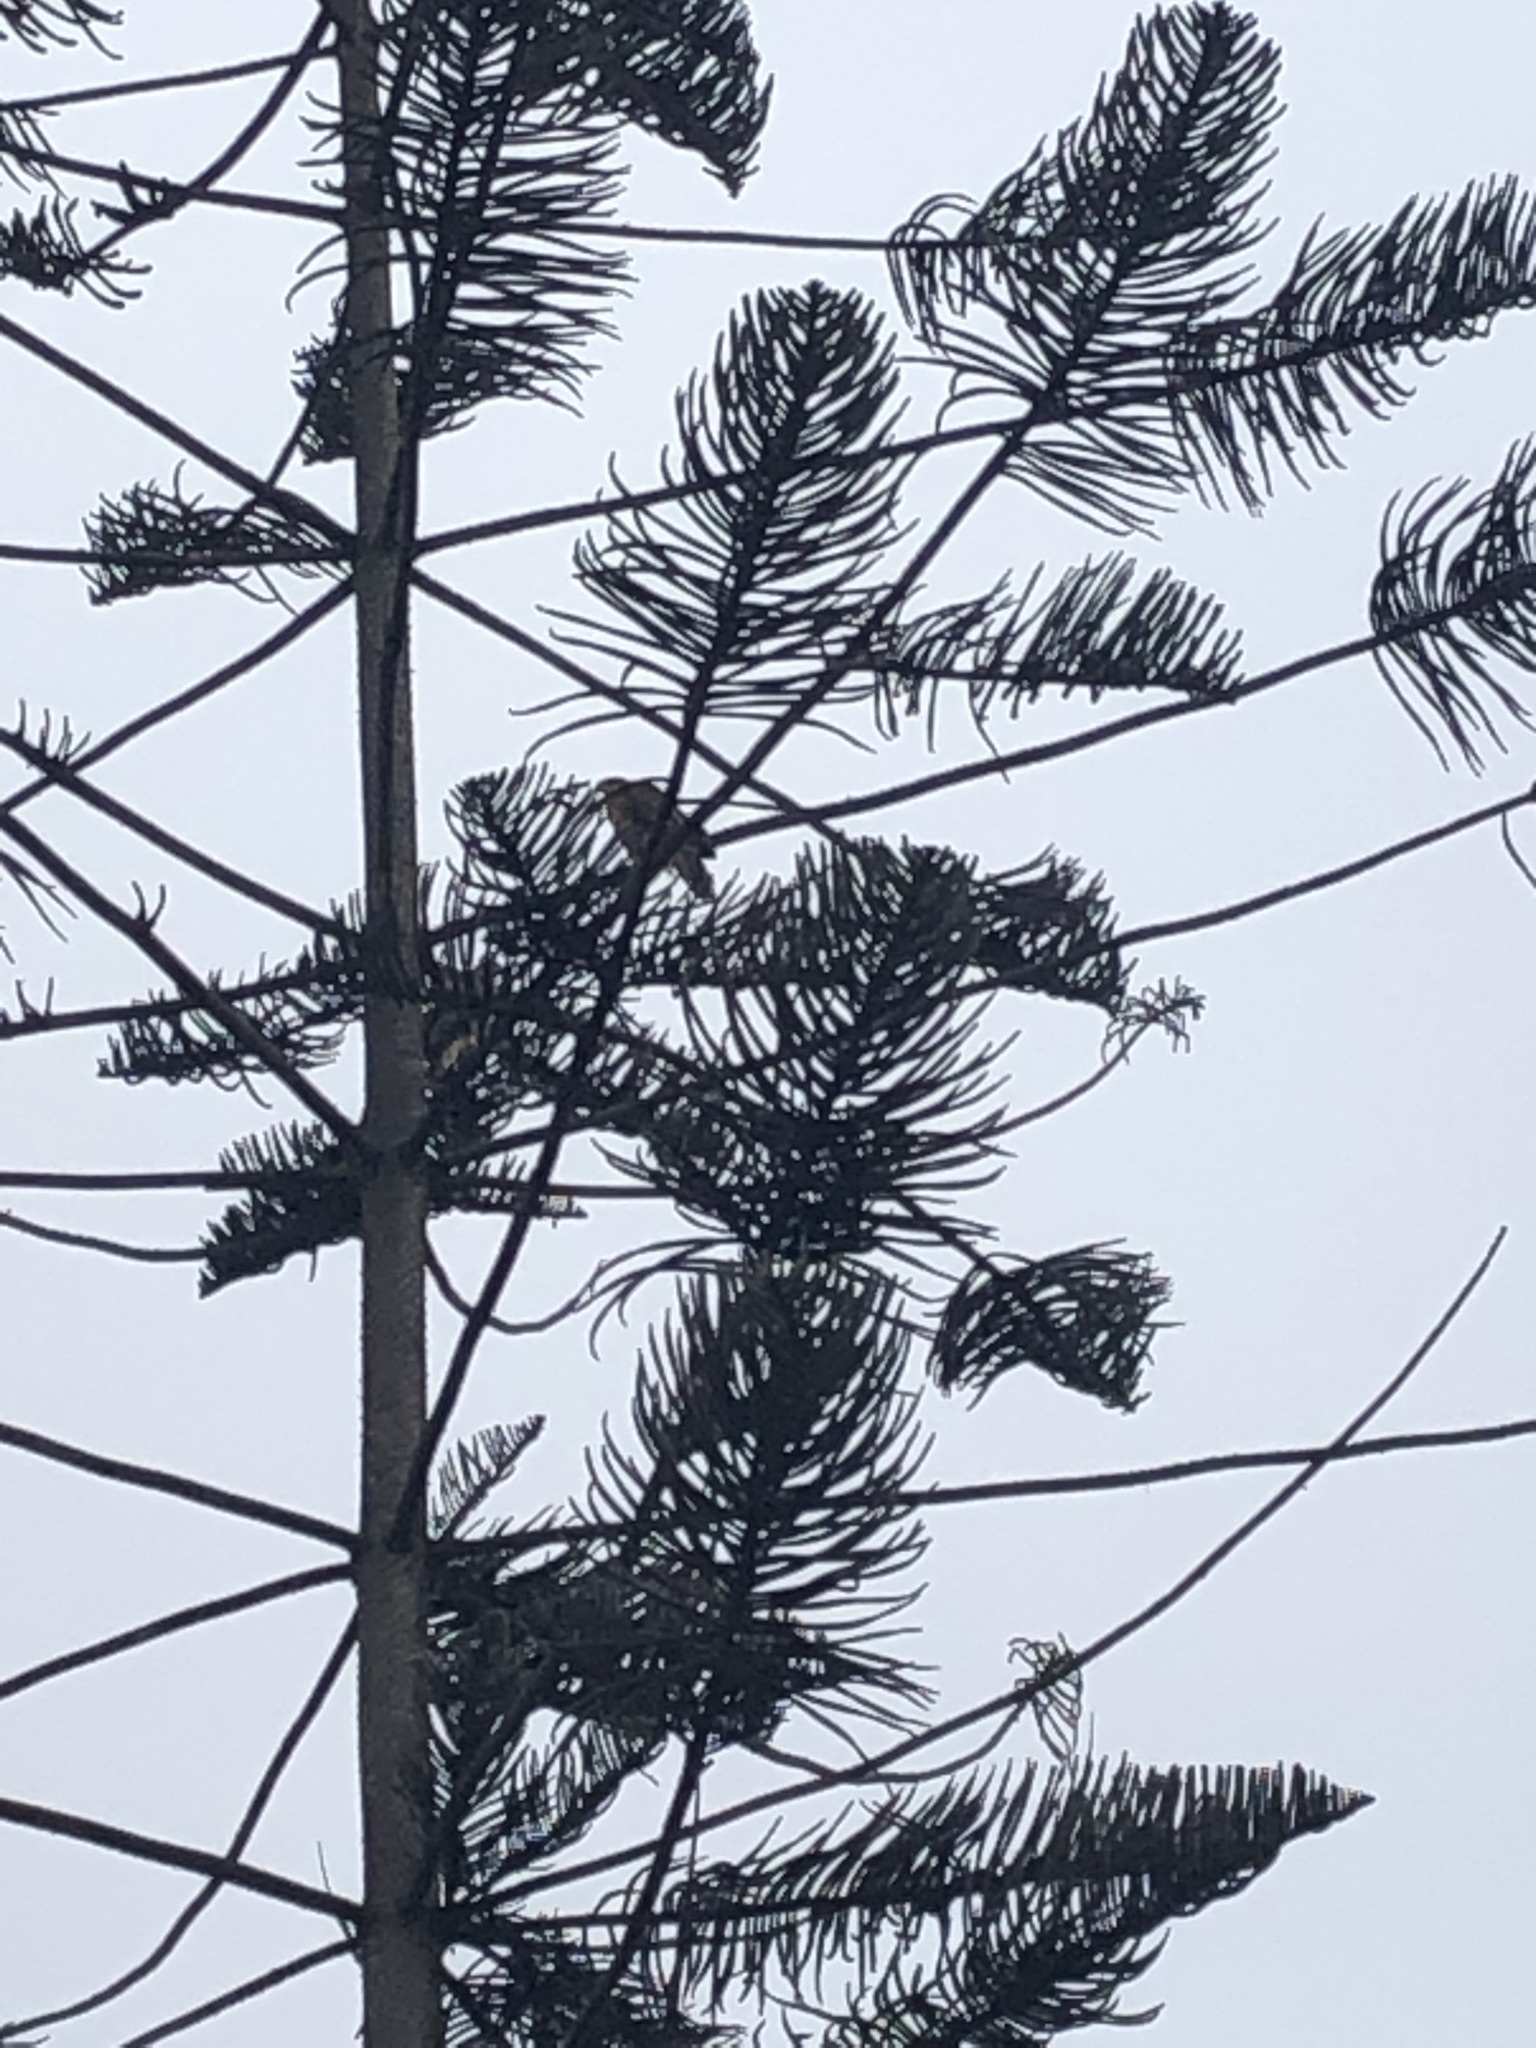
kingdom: Animalia
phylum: Chordata
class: Aves
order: Accipitriformes
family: Accipitridae
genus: Parabuteo
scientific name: Parabuteo unicinctus
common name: Harris's hawk
